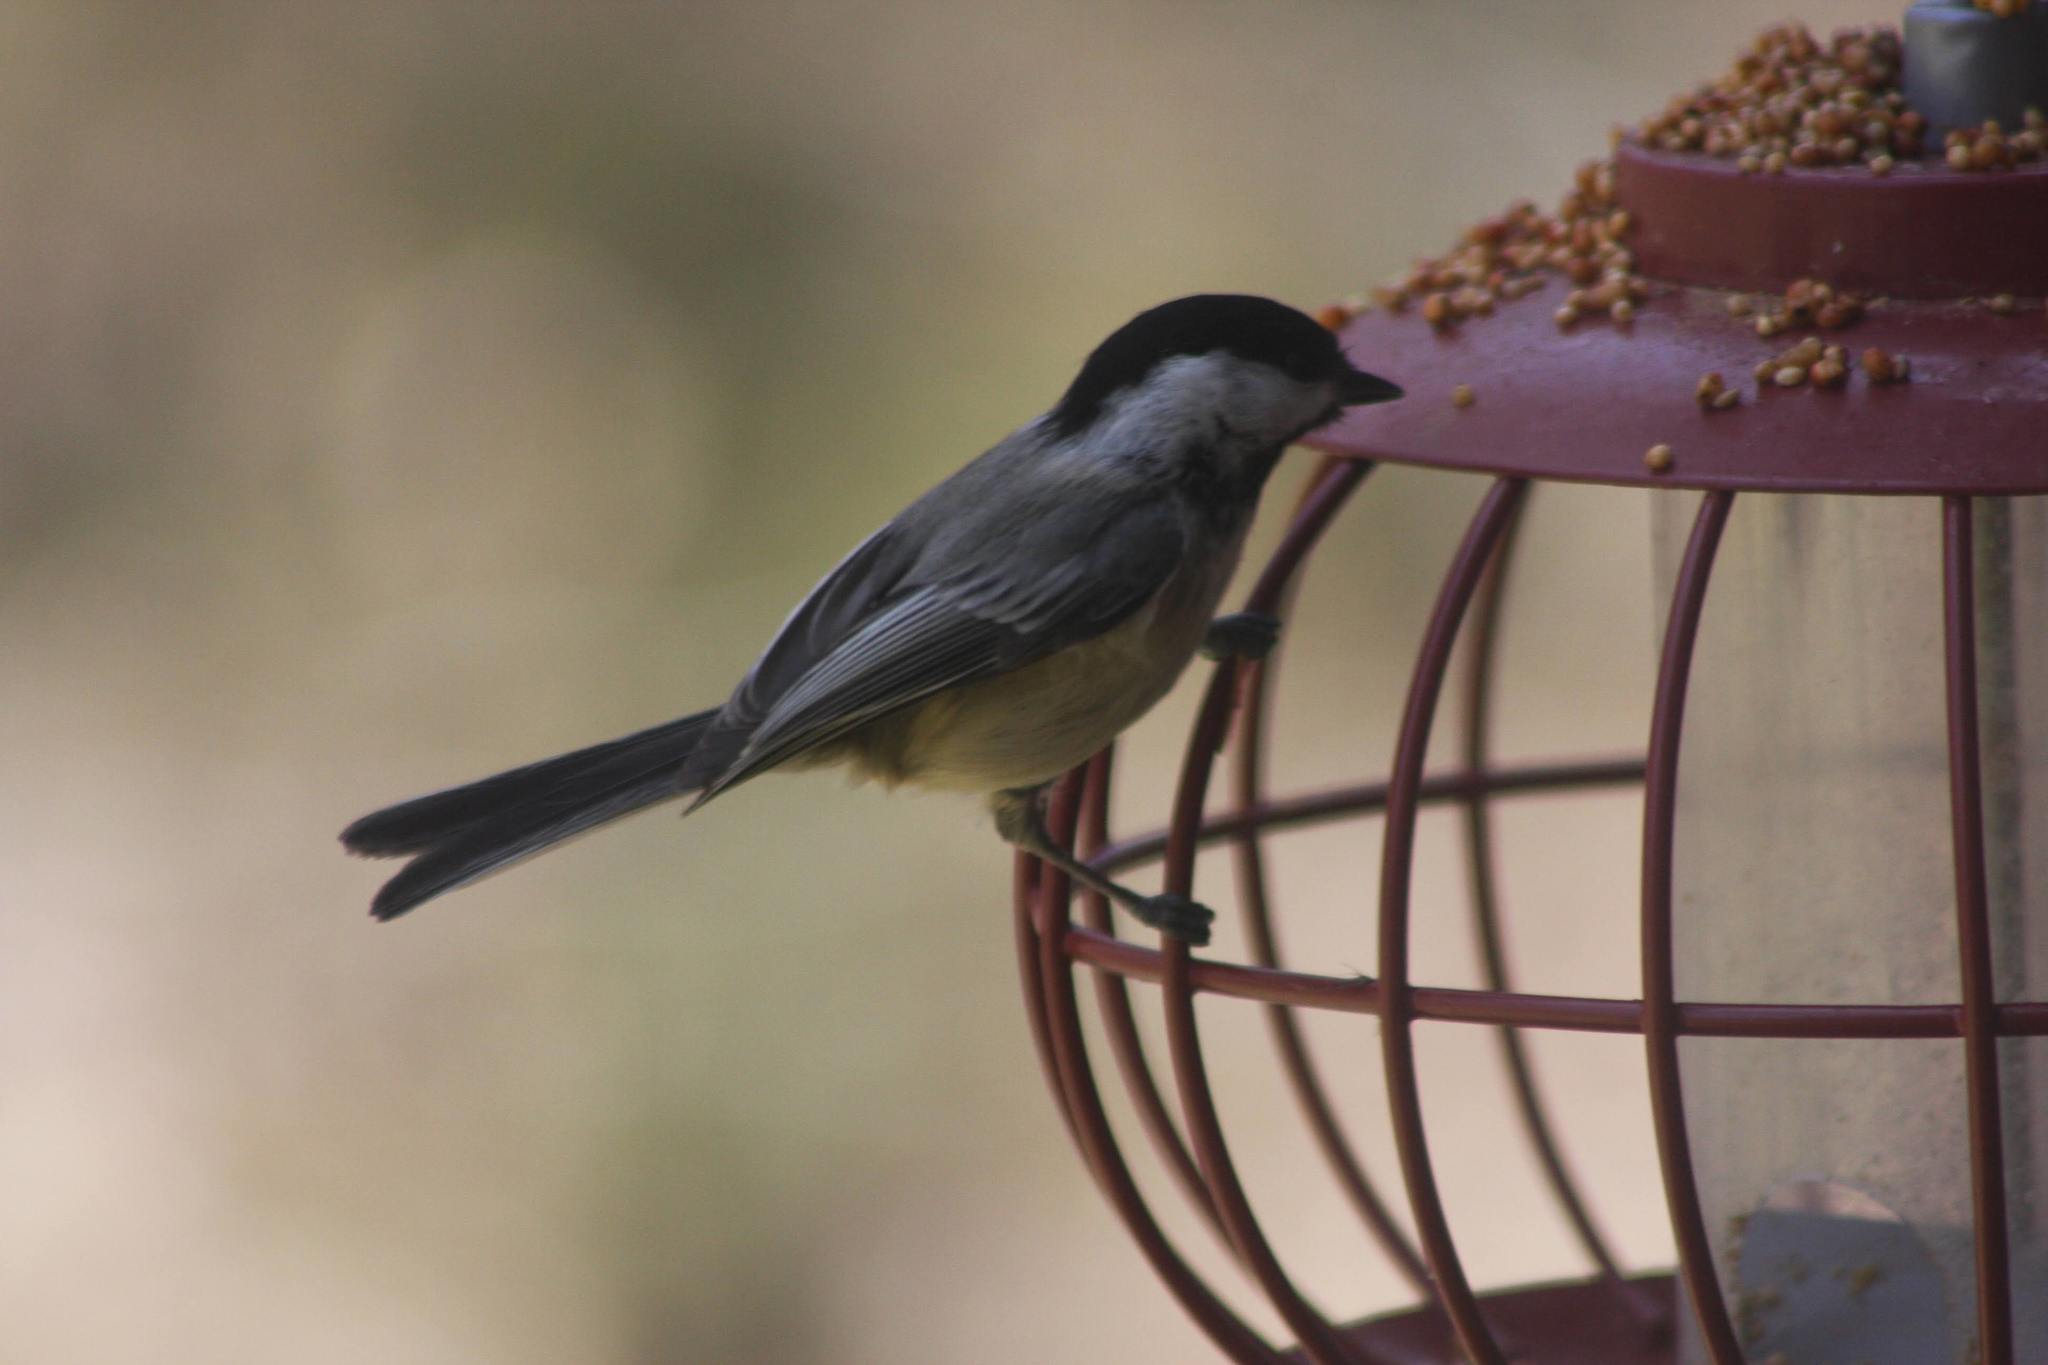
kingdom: Animalia
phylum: Chordata
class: Aves
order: Passeriformes
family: Paridae
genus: Poecile
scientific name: Poecile atricapillus
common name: Black-capped chickadee
